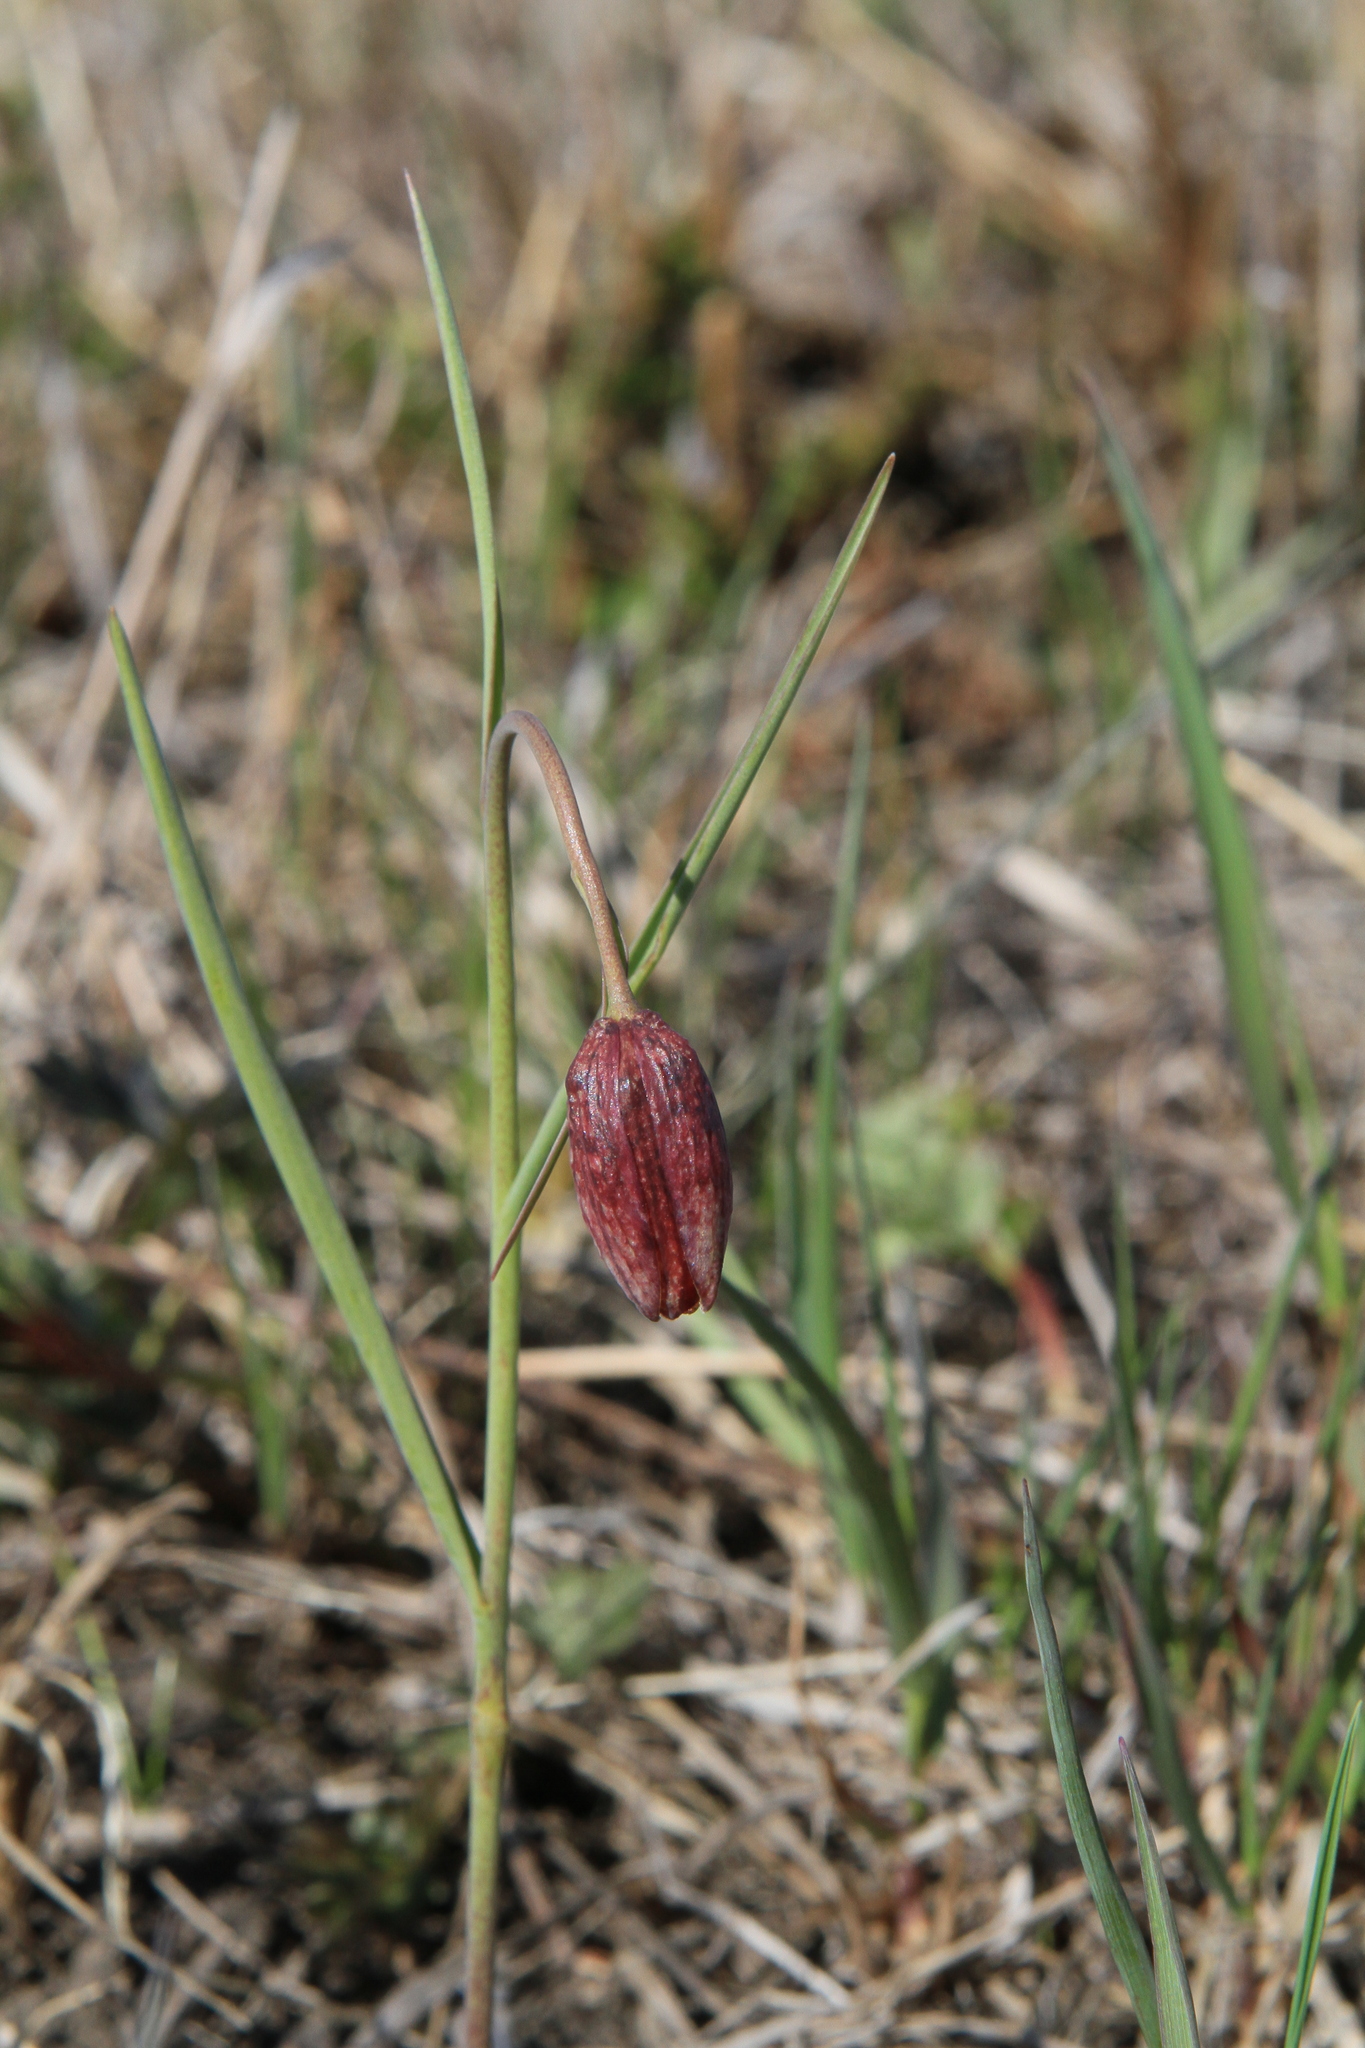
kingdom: Plantae
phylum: Tracheophyta
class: Liliopsida
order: Liliales
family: Liliaceae
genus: Fritillaria
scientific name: Fritillaria meleagroides
